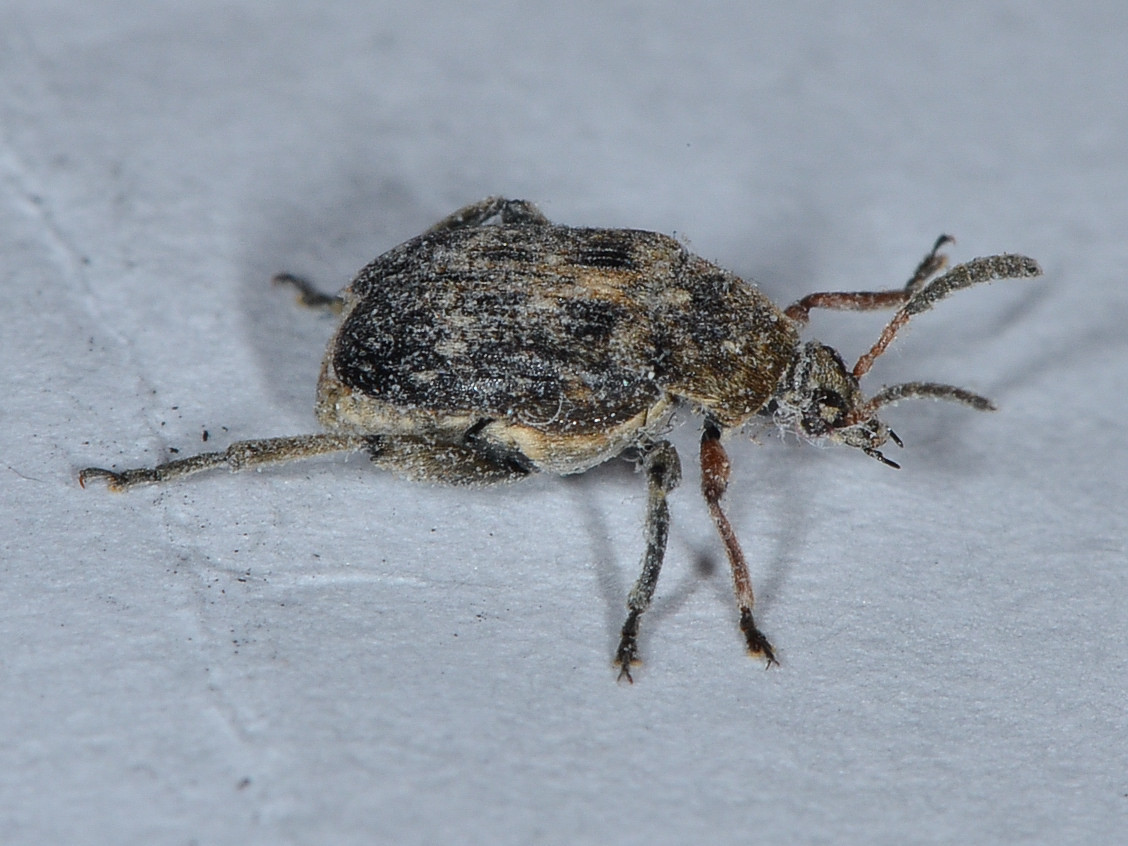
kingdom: Animalia
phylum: Arthropoda
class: Insecta
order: Coleoptera
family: Chrysomelidae
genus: Bruchus
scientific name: Bruchus rufimanus
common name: Broadbean weevil
